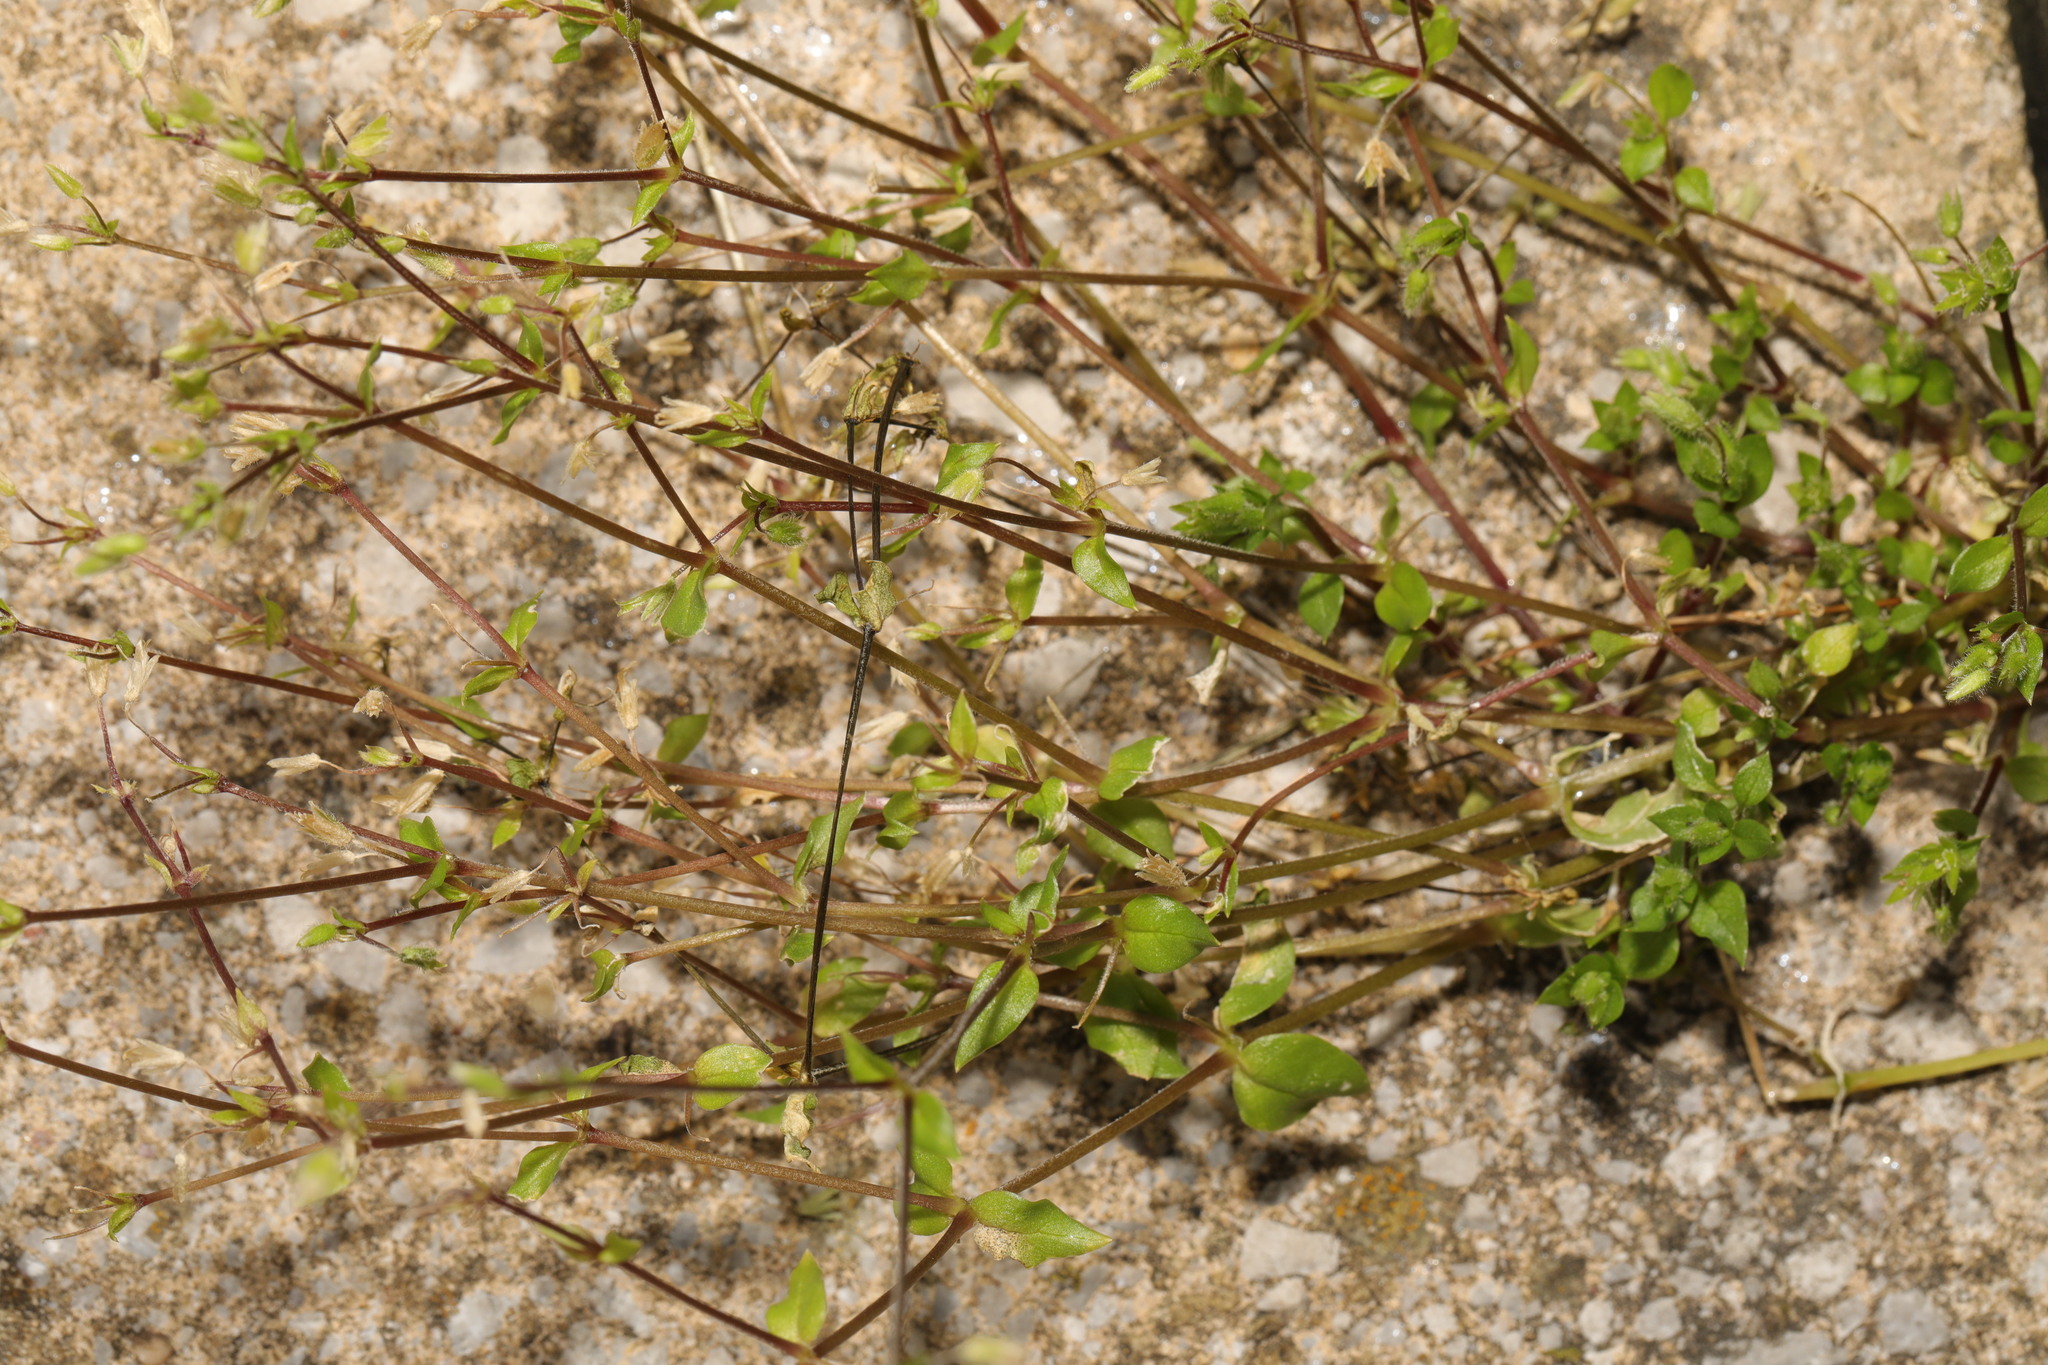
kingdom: Plantae
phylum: Tracheophyta
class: Magnoliopsida
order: Caryophyllales
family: Caryophyllaceae
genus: Stellaria
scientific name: Stellaria media
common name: Common chickweed
